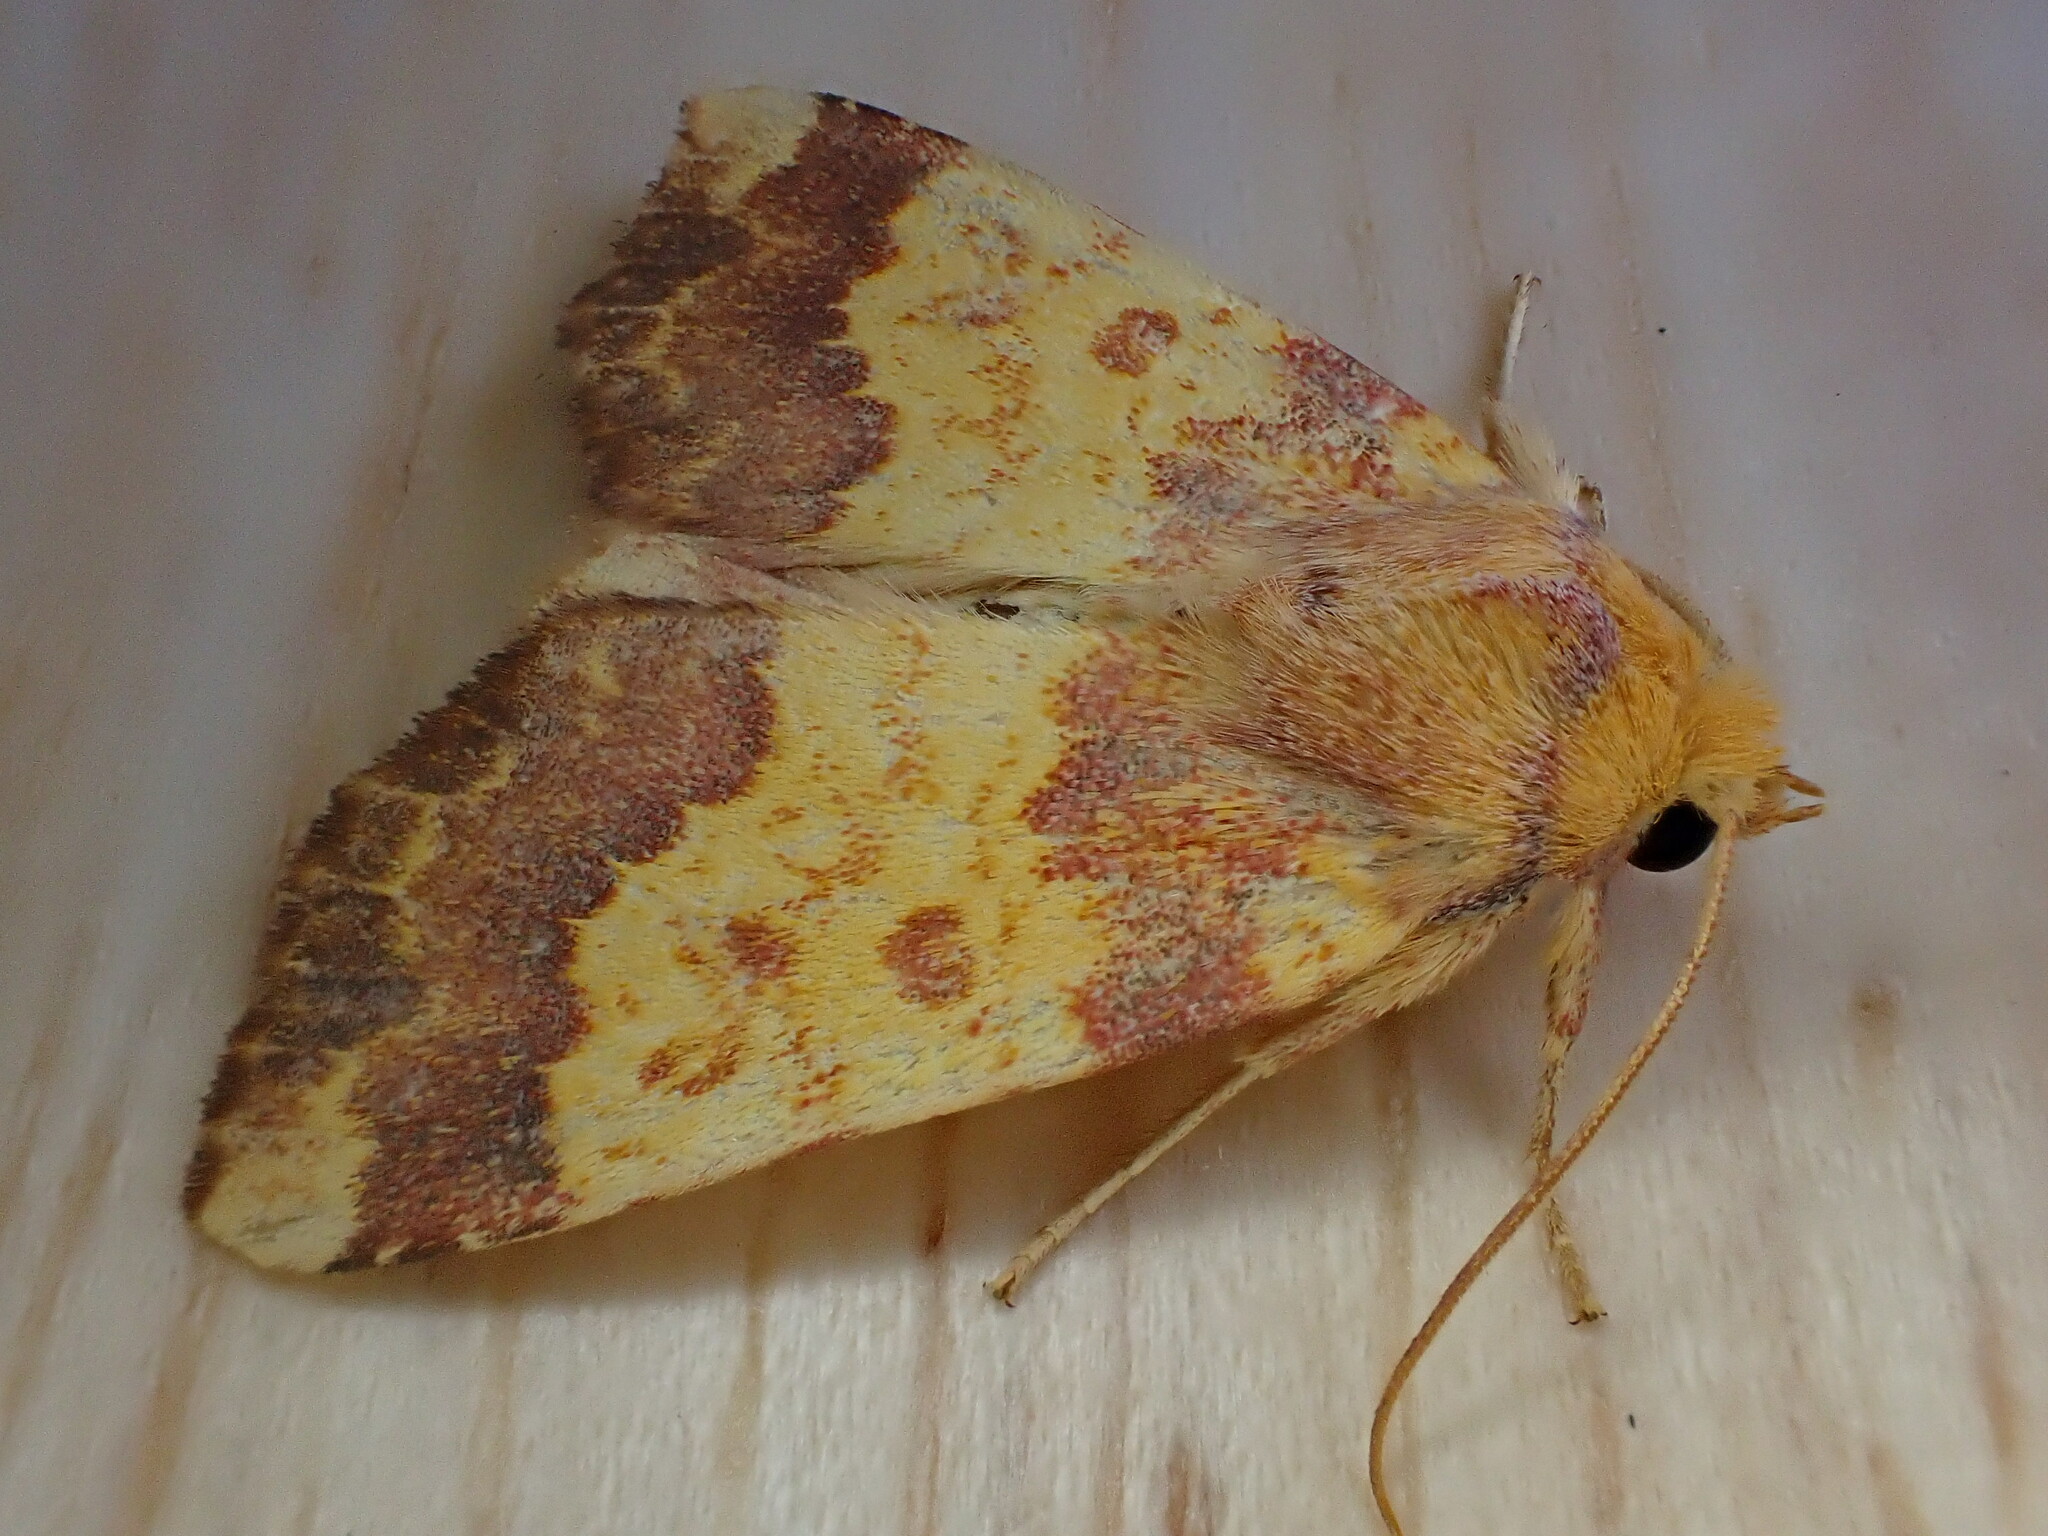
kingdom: Animalia
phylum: Arthropoda
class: Insecta
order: Lepidoptera
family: Noctuidae
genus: Tiliacea
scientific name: Tiliacea aurago
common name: Barred sallow
